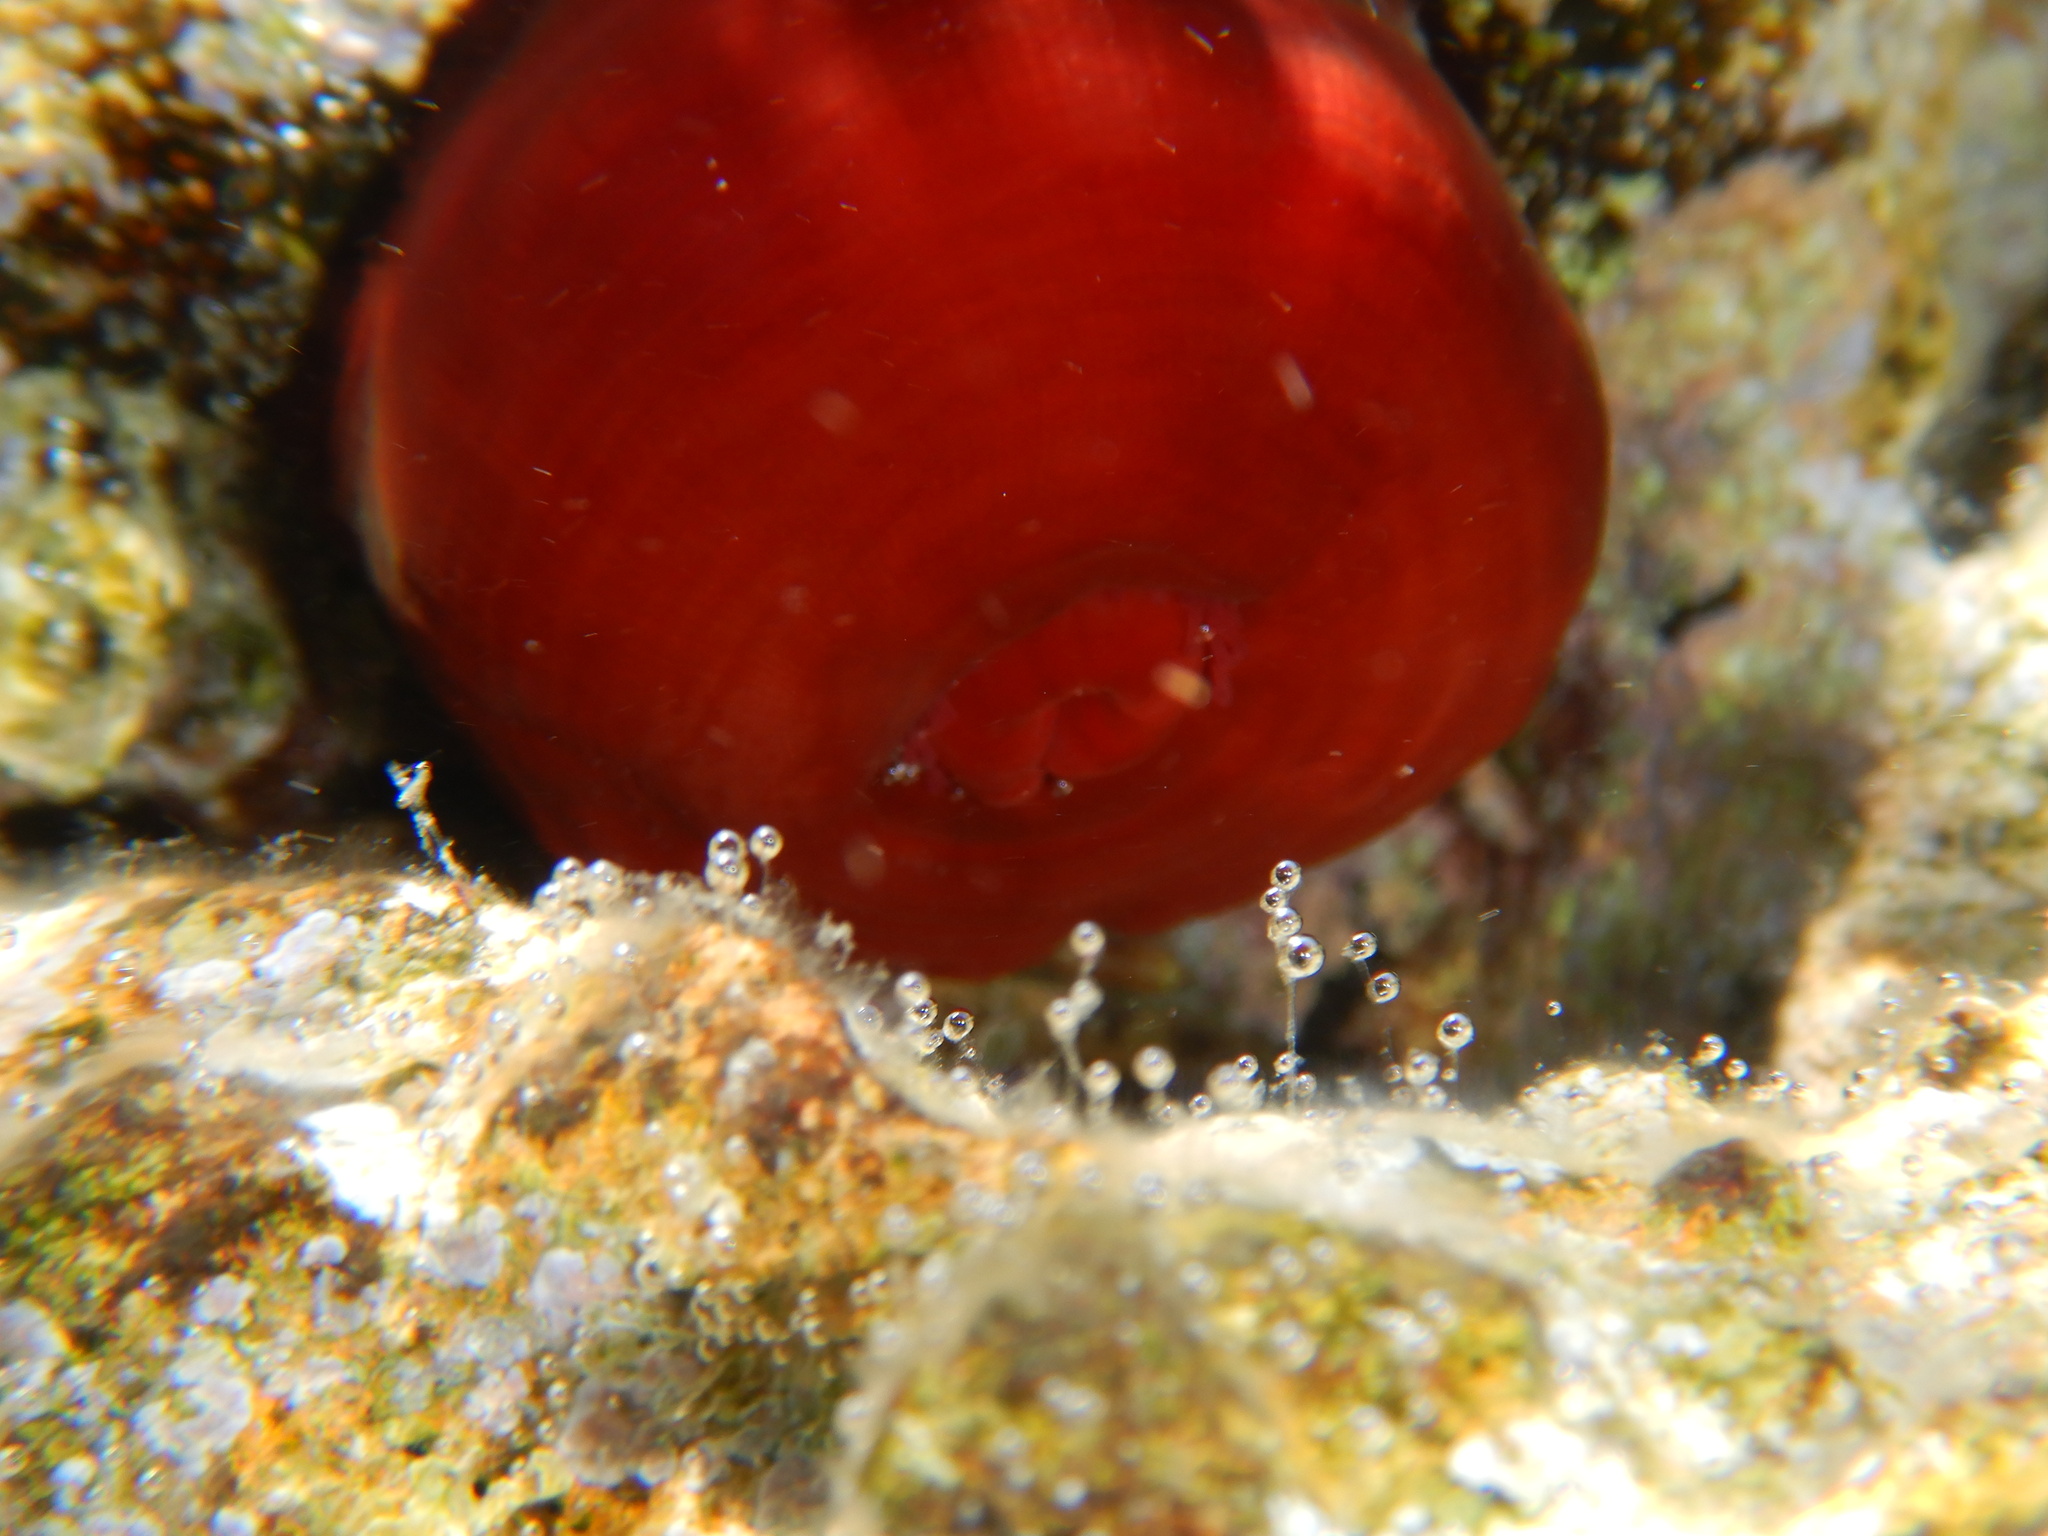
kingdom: Animalia
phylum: Cnidaria
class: Anthozoa
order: Actiniaria
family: Actiniidae
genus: Actinia
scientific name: Actinia mediterranea
